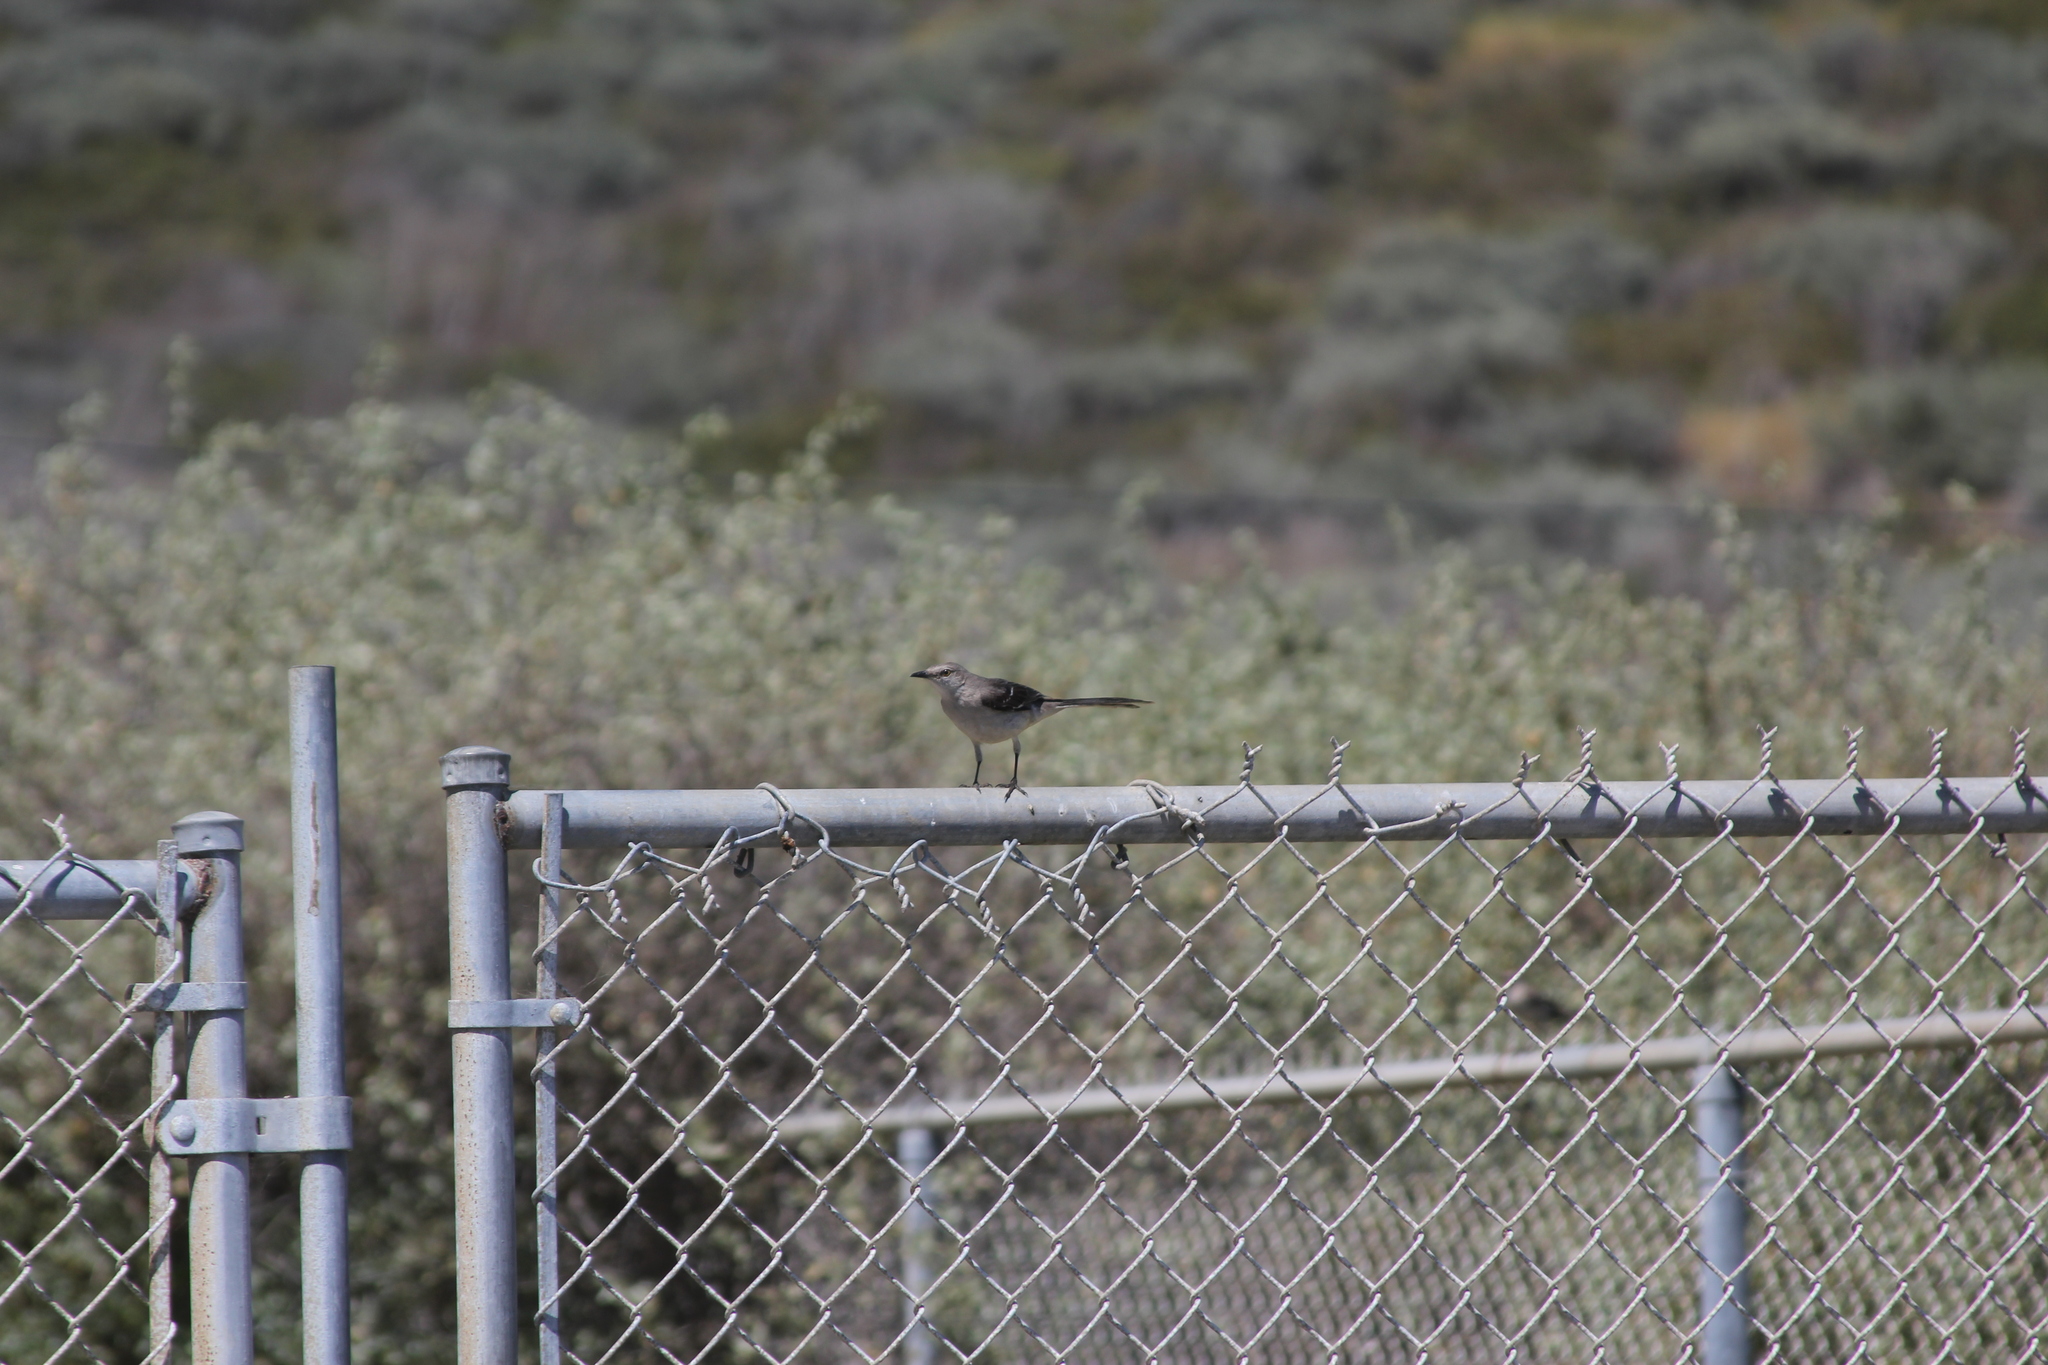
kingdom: Animalia
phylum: Chordata
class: Aves
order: Passeriformes
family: Mimidae
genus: Mimus
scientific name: Mimus polyglottos
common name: Northern mockingbird
